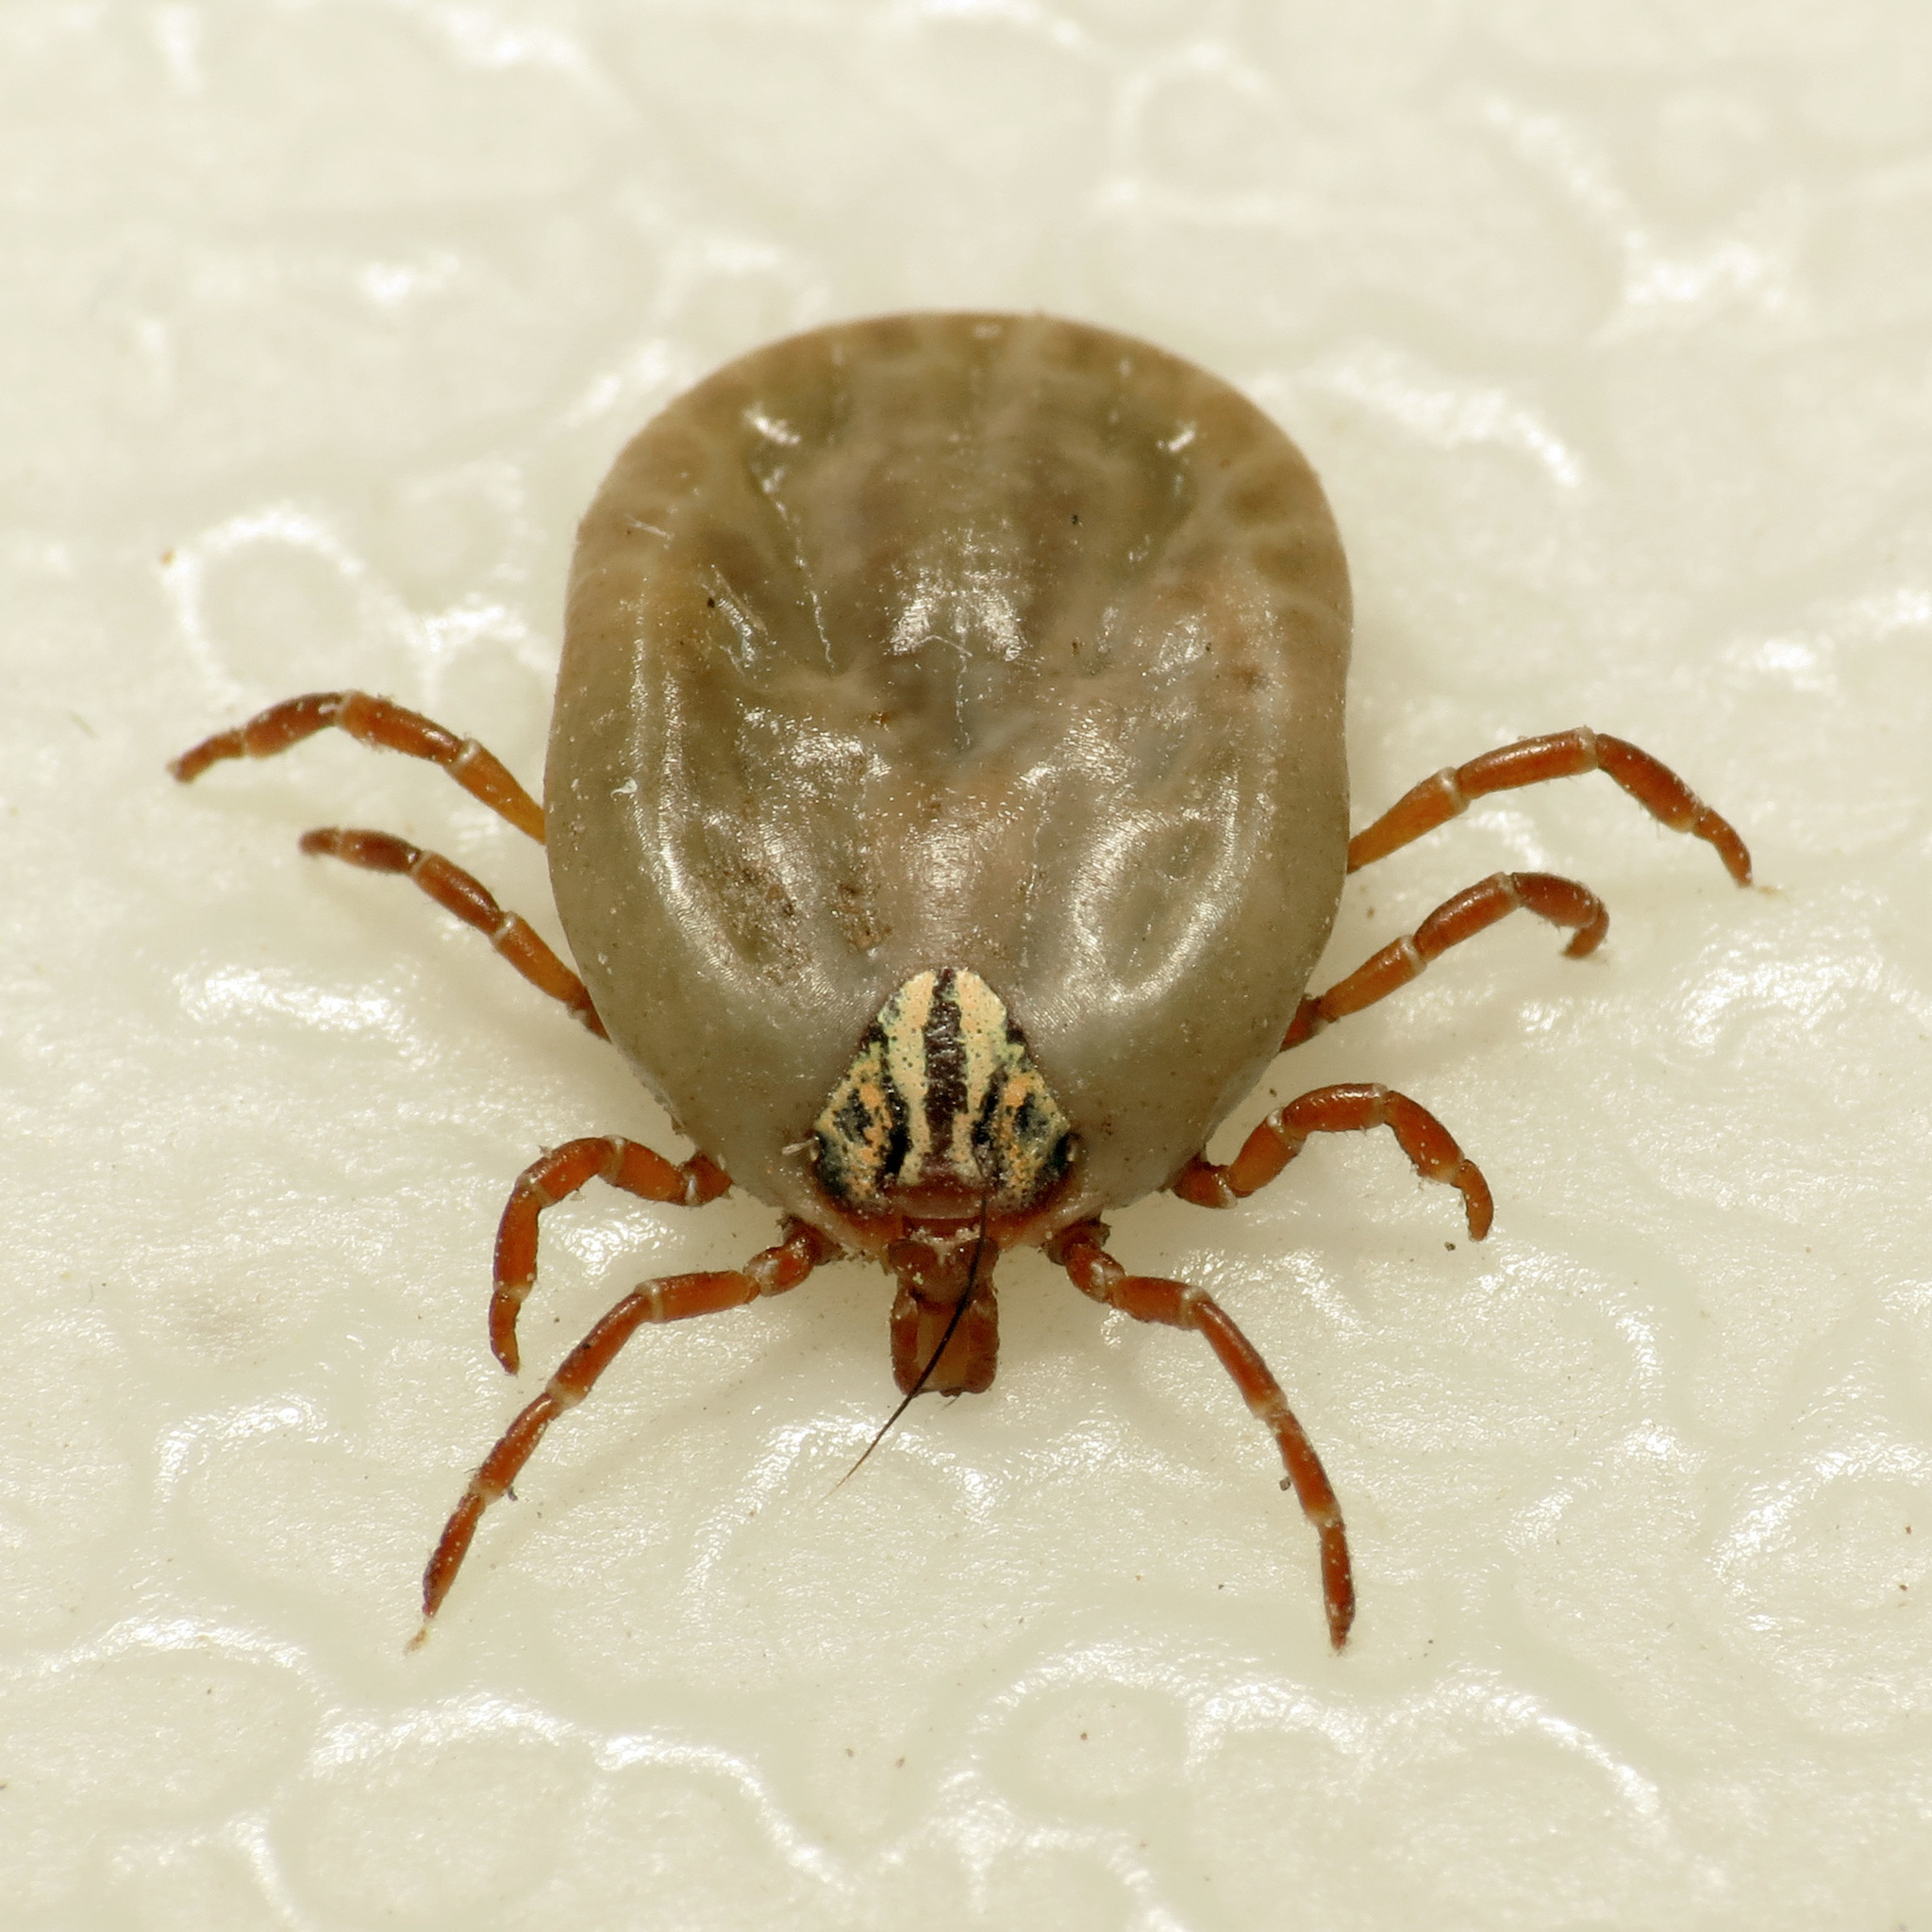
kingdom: Animalia
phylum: Arthropoda
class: Arachnida
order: Ixodida
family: Ixodidae
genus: Amblyomma
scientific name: Amblyomma triste
